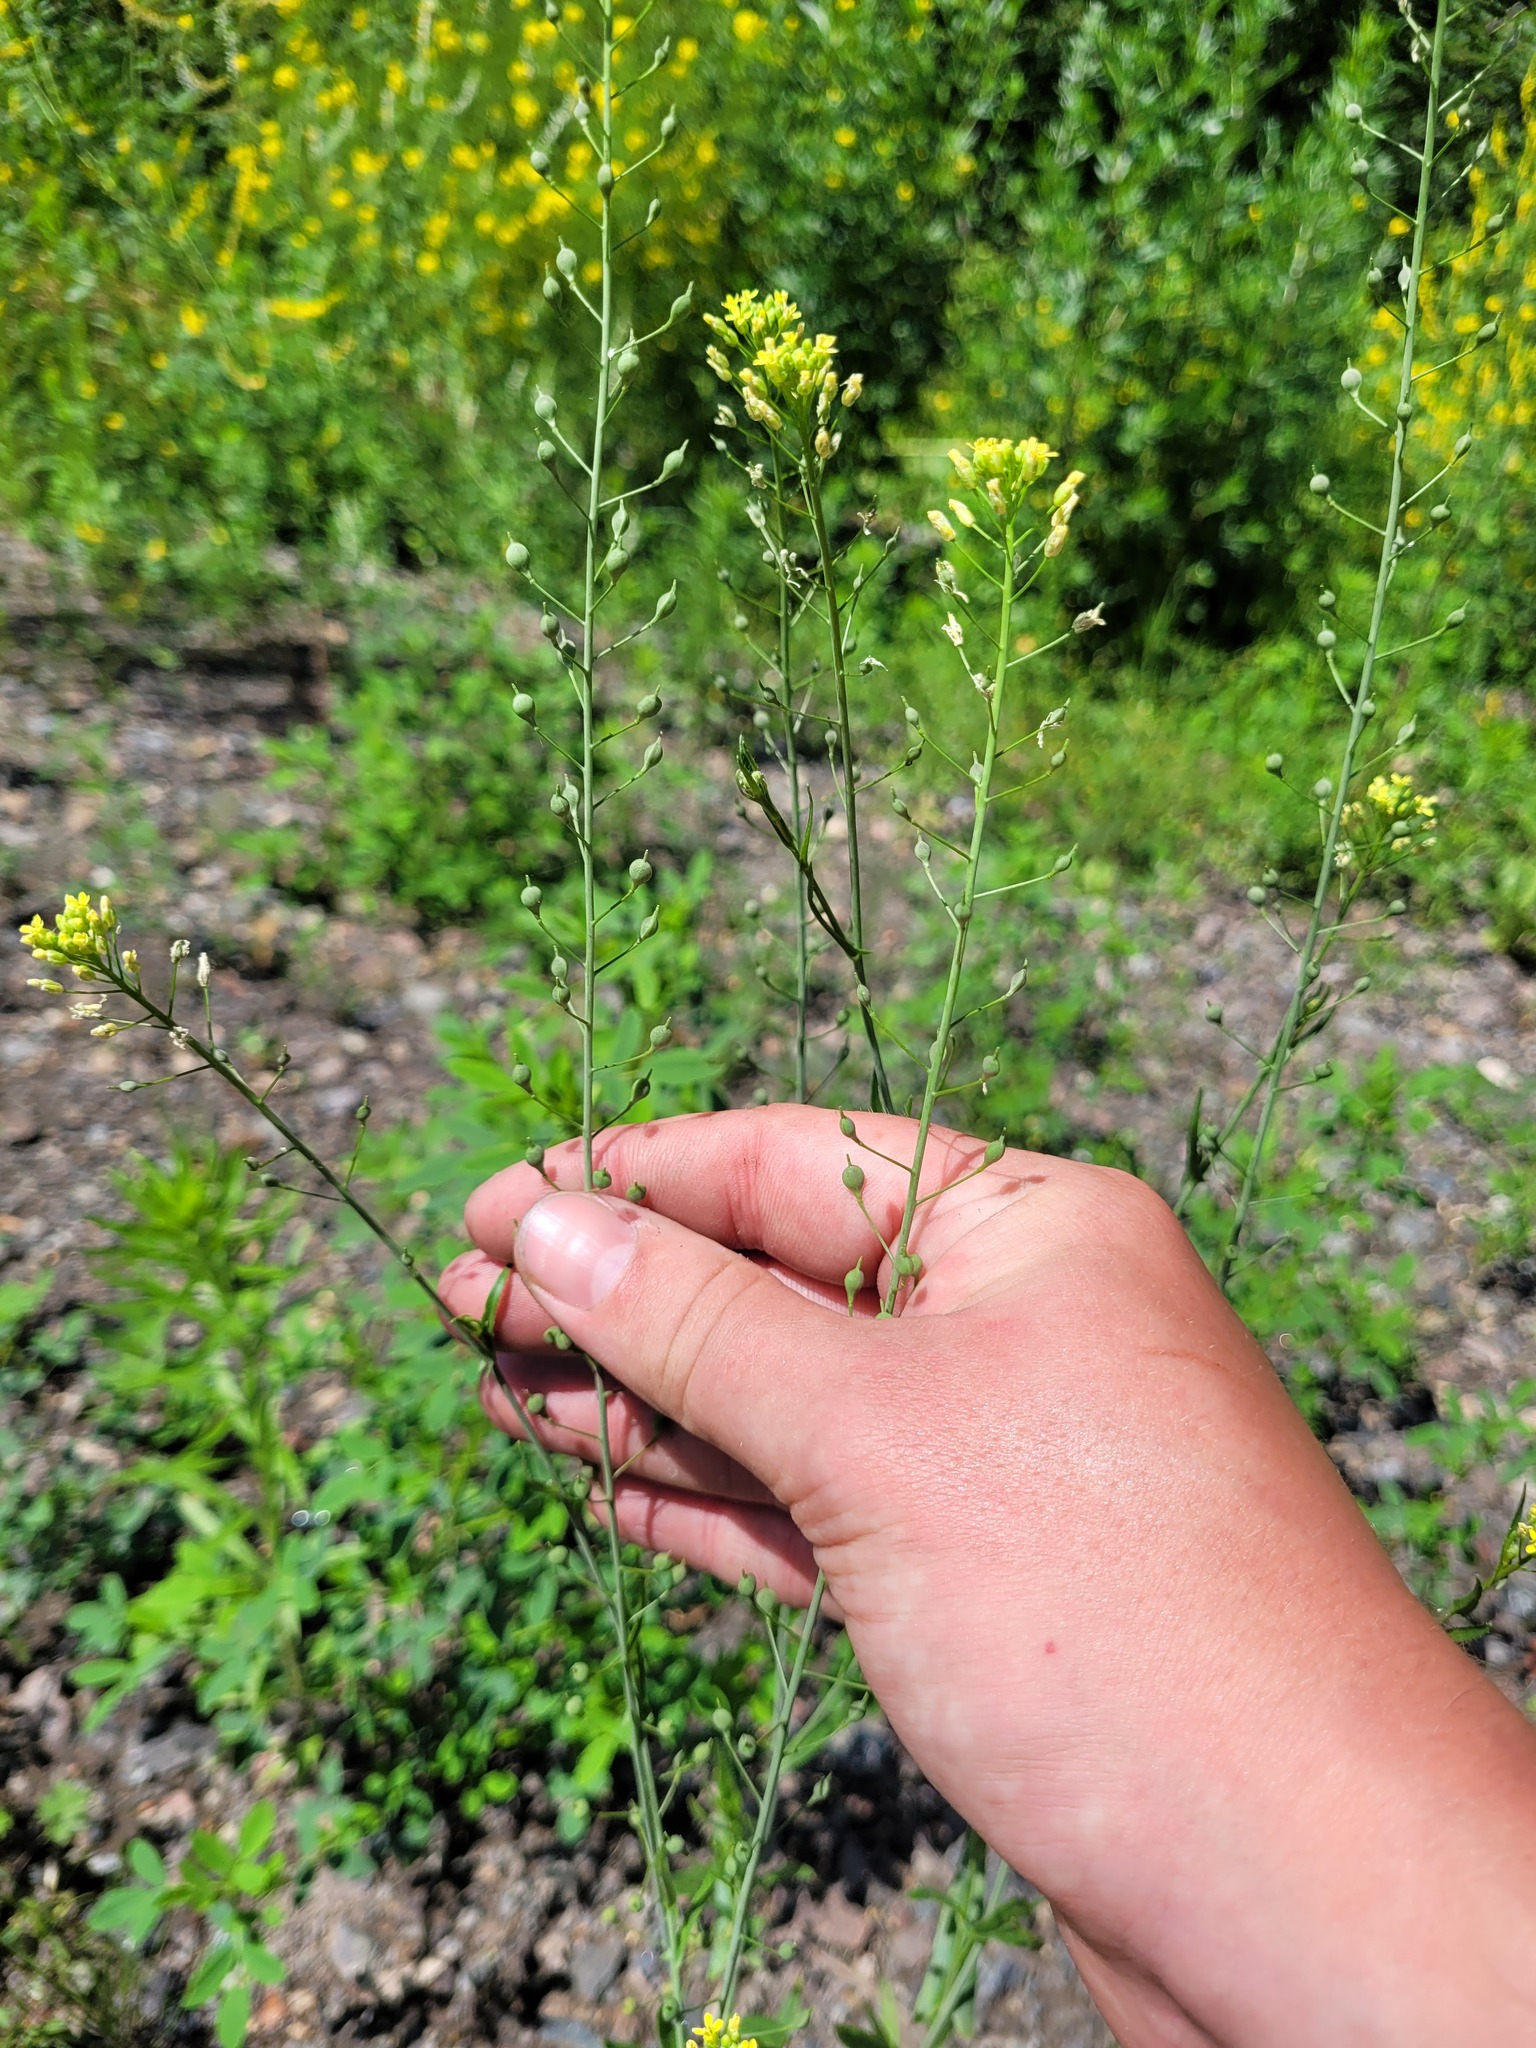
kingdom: Plantae
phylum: Tracheophyta
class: Magnoliopsida
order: Brassicales
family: Brassicaceae
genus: Camelina
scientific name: Camelina microcarpa
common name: Lesser gold-of-pleasure
